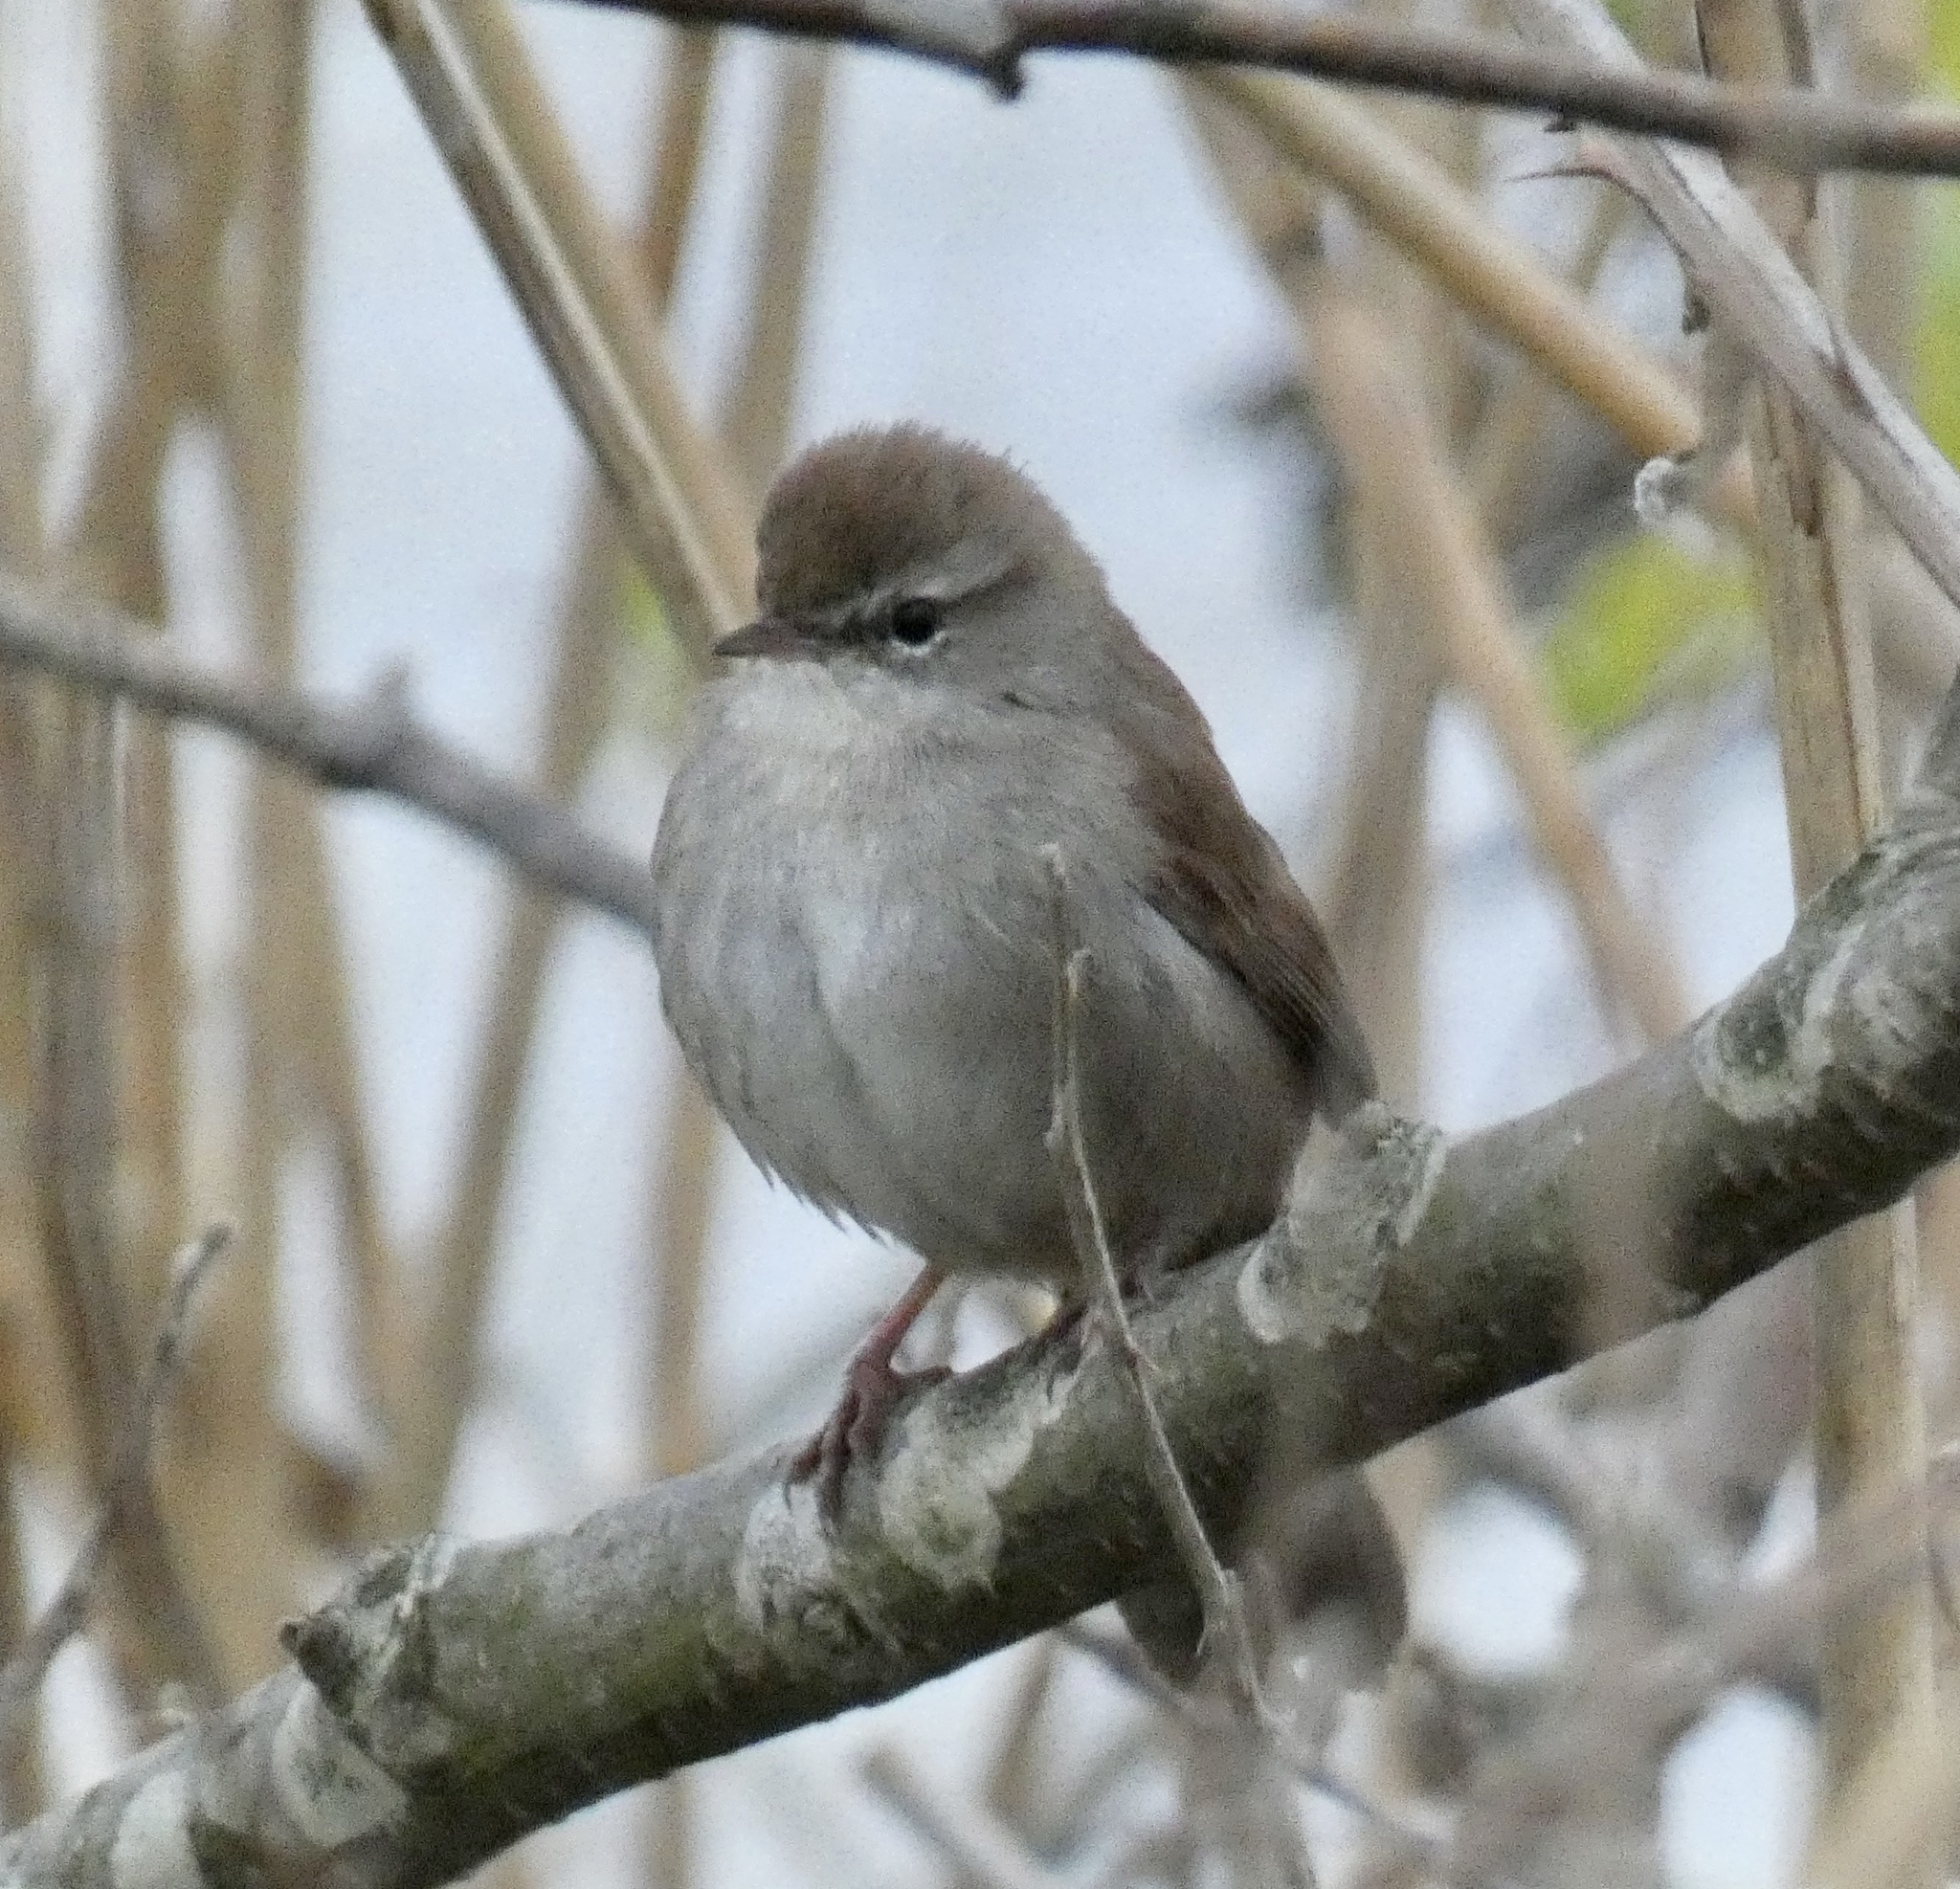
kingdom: Animalia
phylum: Chordata
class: Aves
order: Passeriformes
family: Cettiidae
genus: Cettia
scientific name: Cettia cetti
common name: Cetti's warbler
